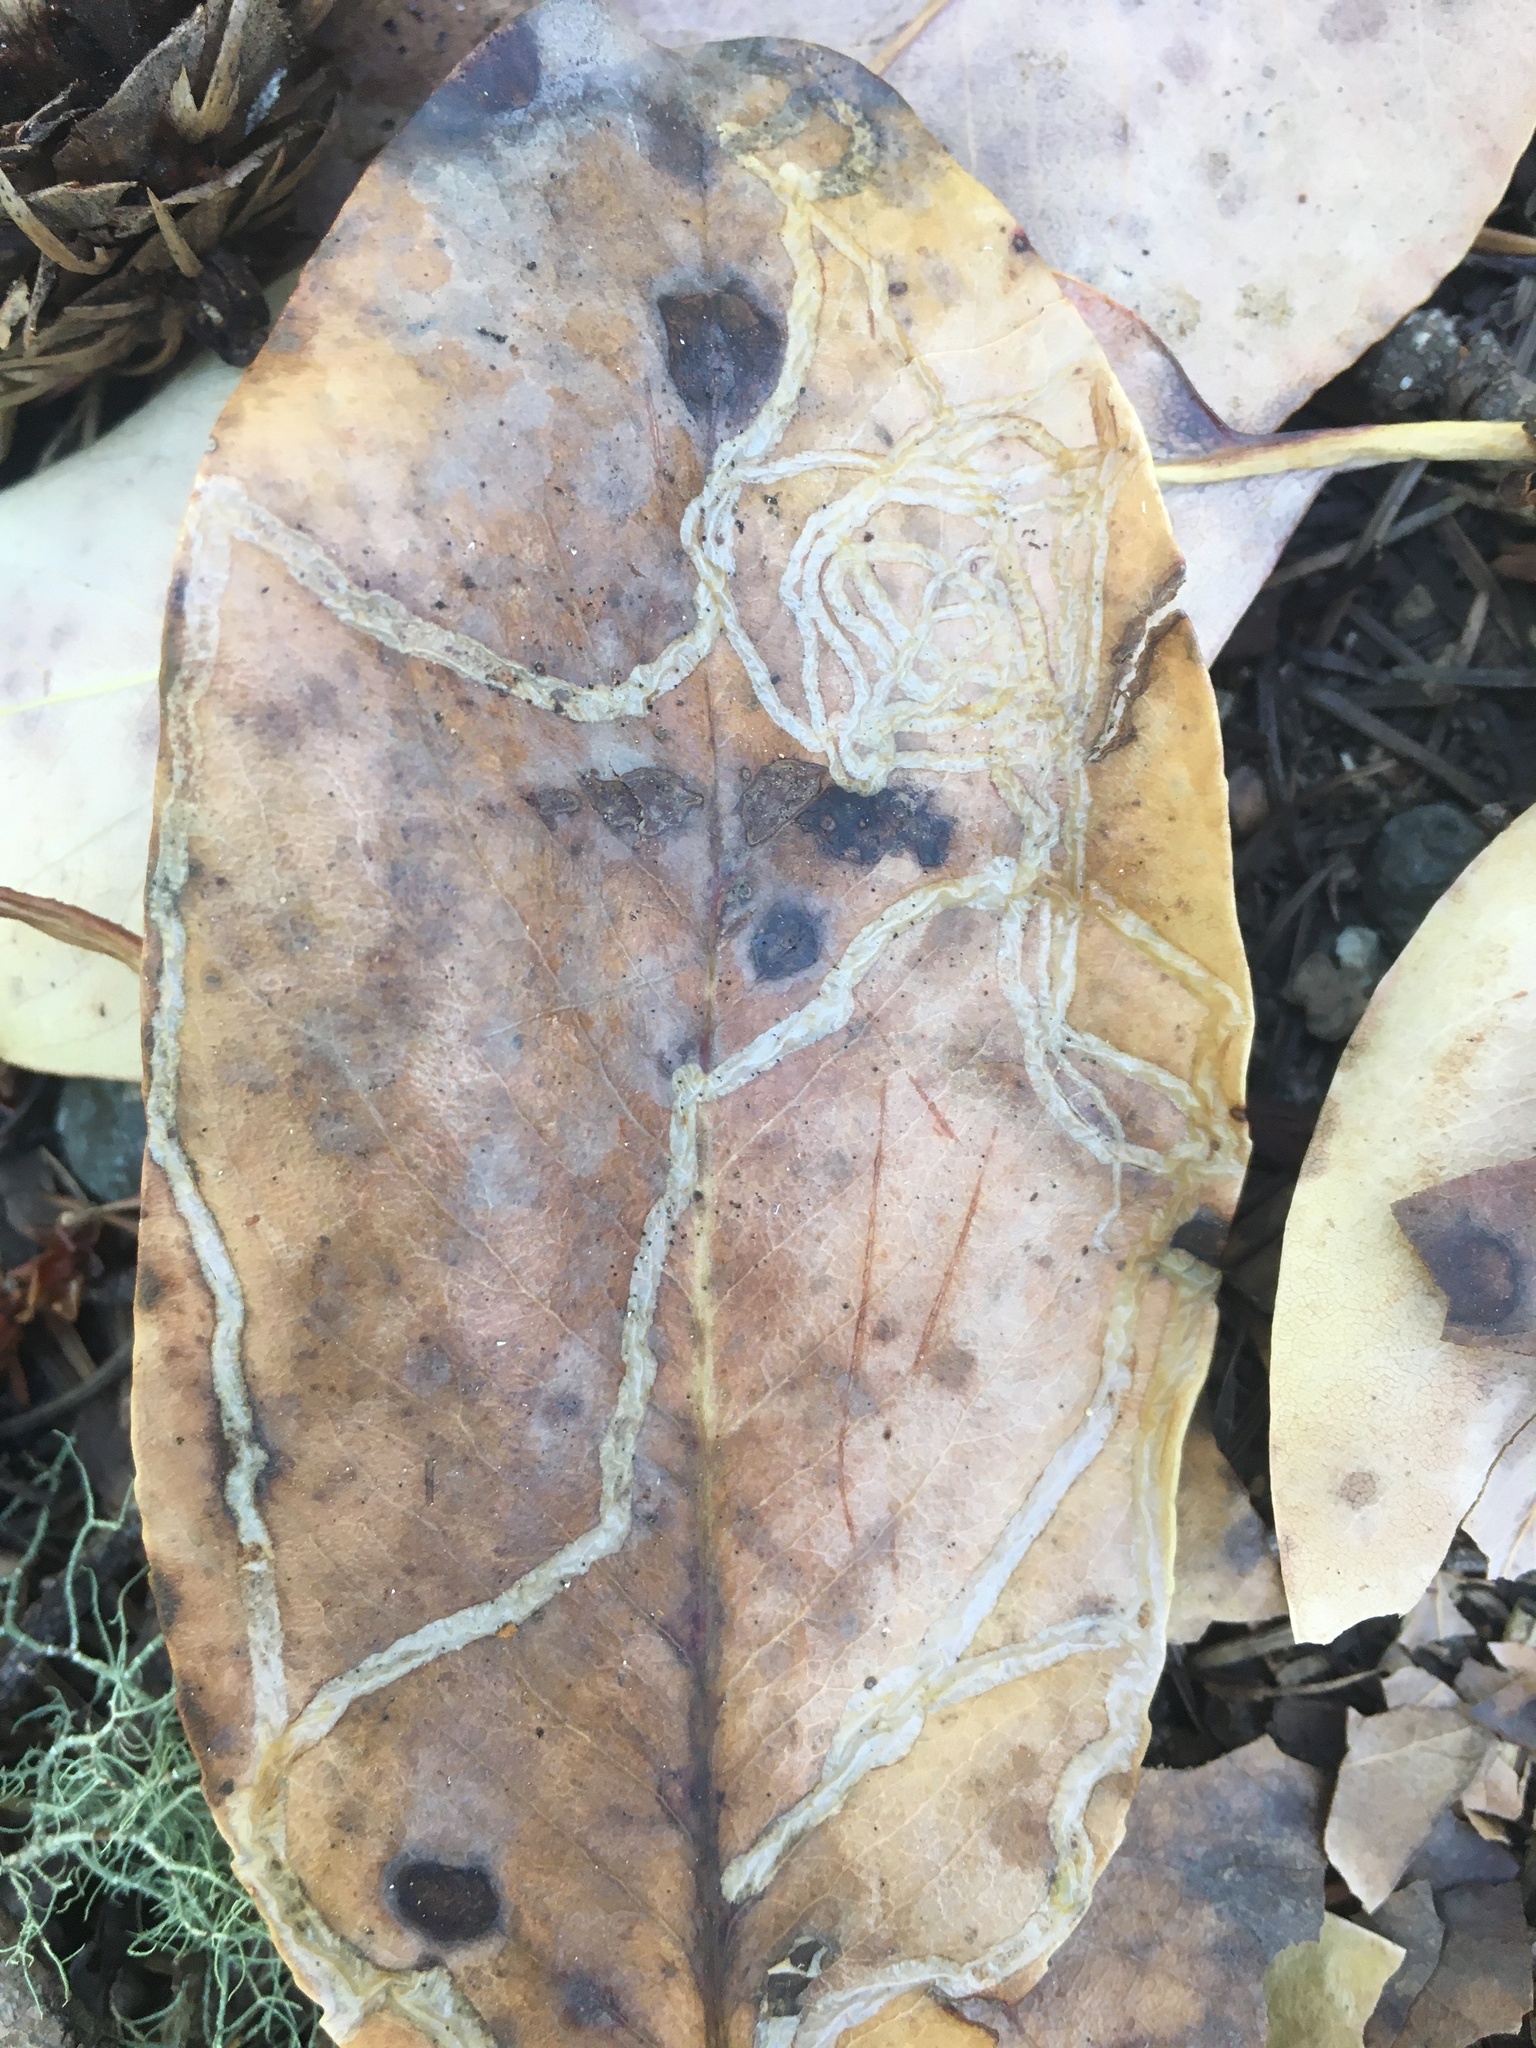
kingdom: Animalia
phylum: Arthropoda
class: Insecta
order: Lepidoptera
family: Gracillariidae
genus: Marmara
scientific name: Marmara arbutiella
